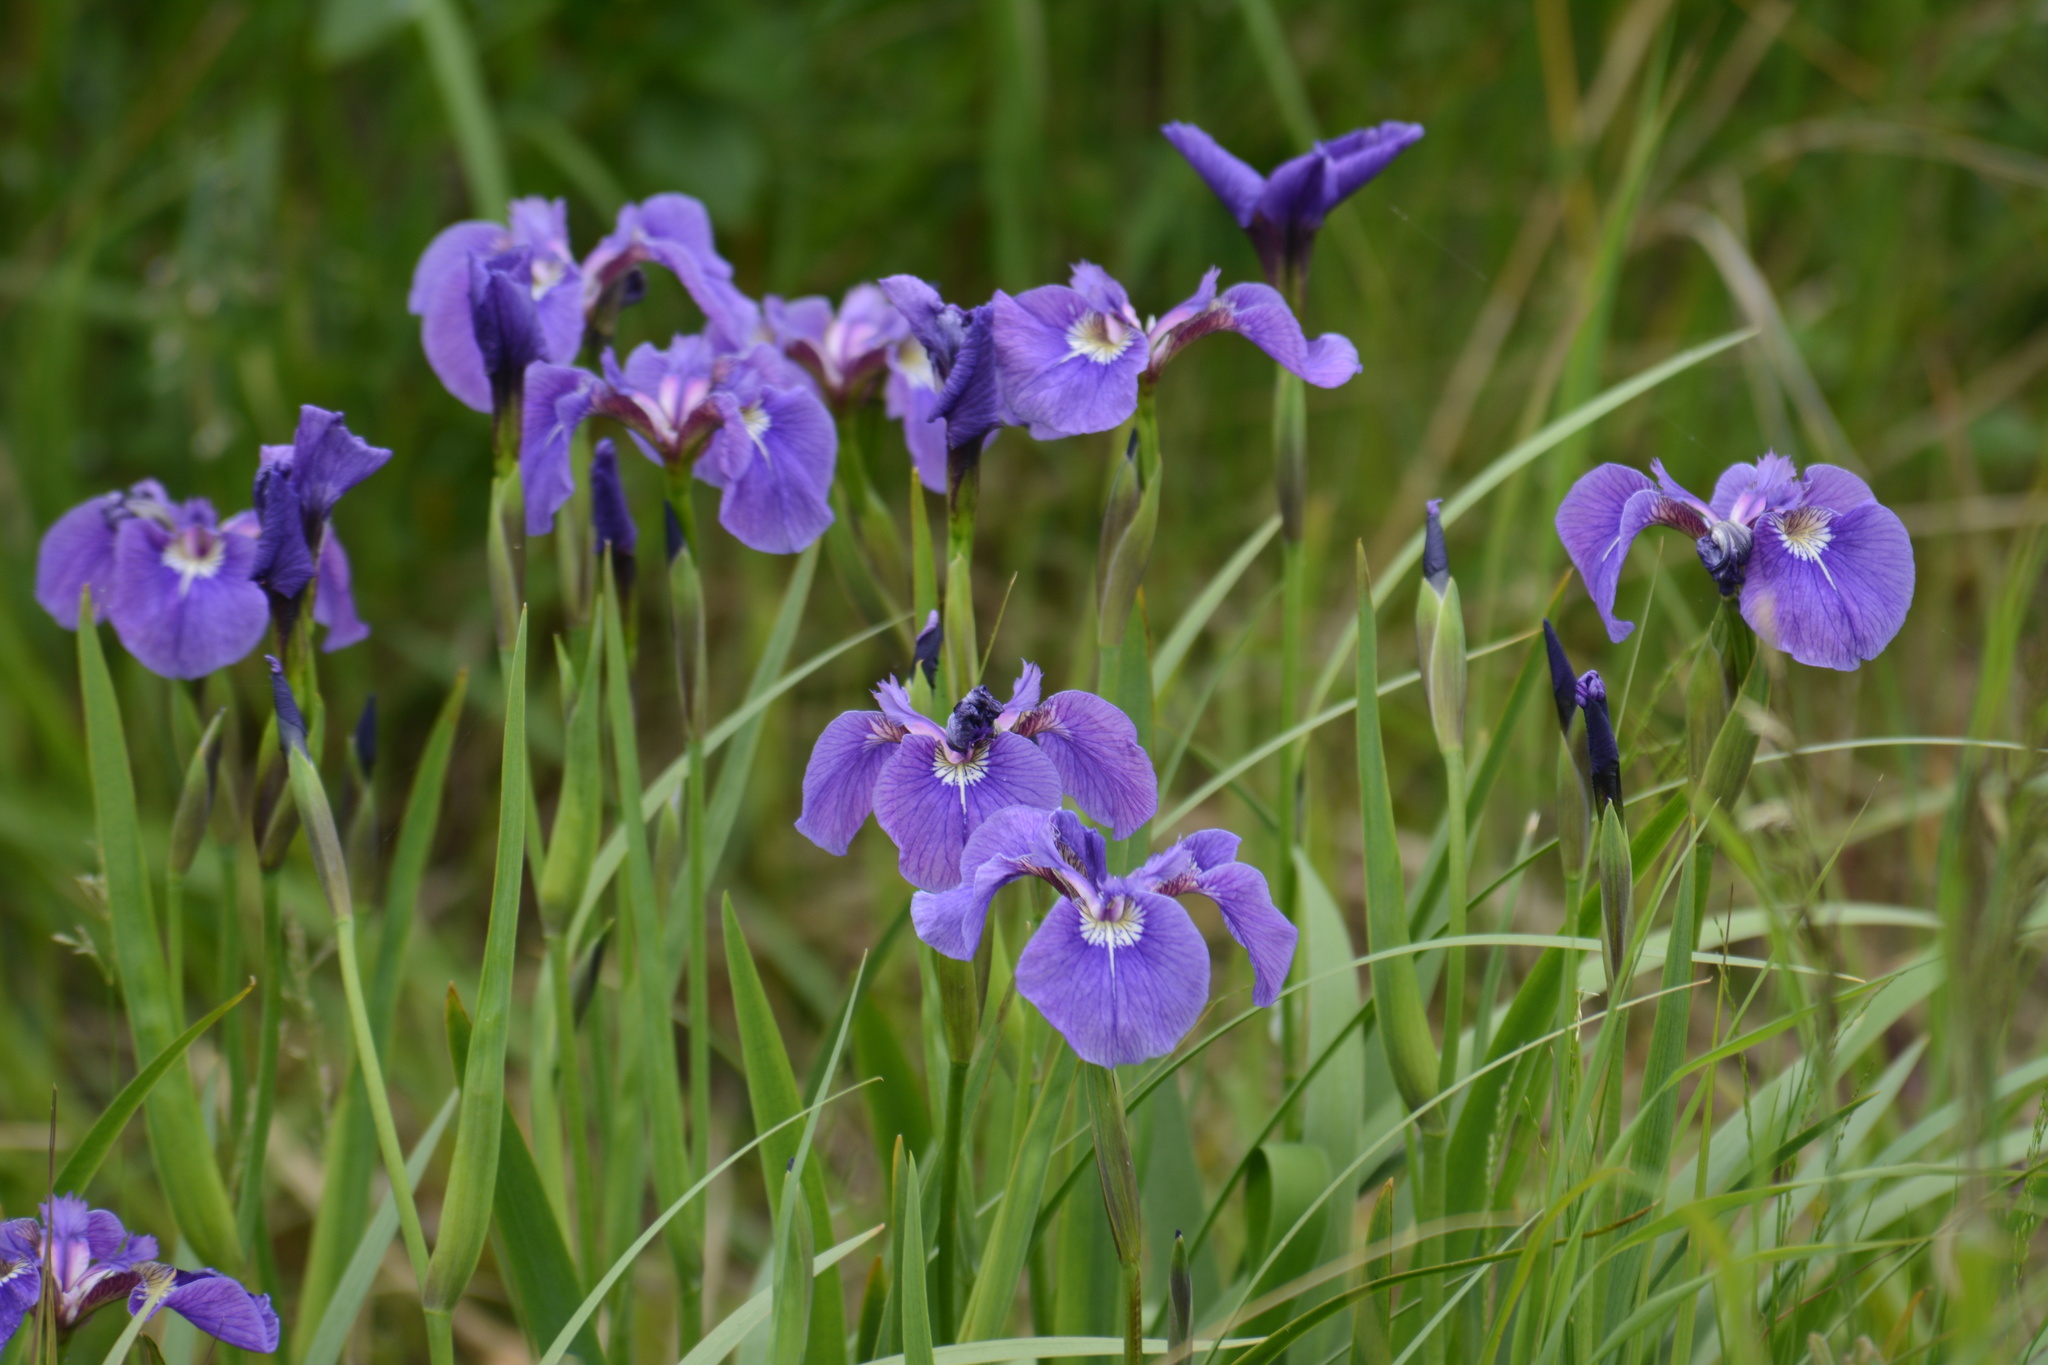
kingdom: Plantae
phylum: Tracheophyta
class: Liliopsida
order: Asparagales
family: Iridaceae
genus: Iris
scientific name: Iris setosa
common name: Arctic blue flag
